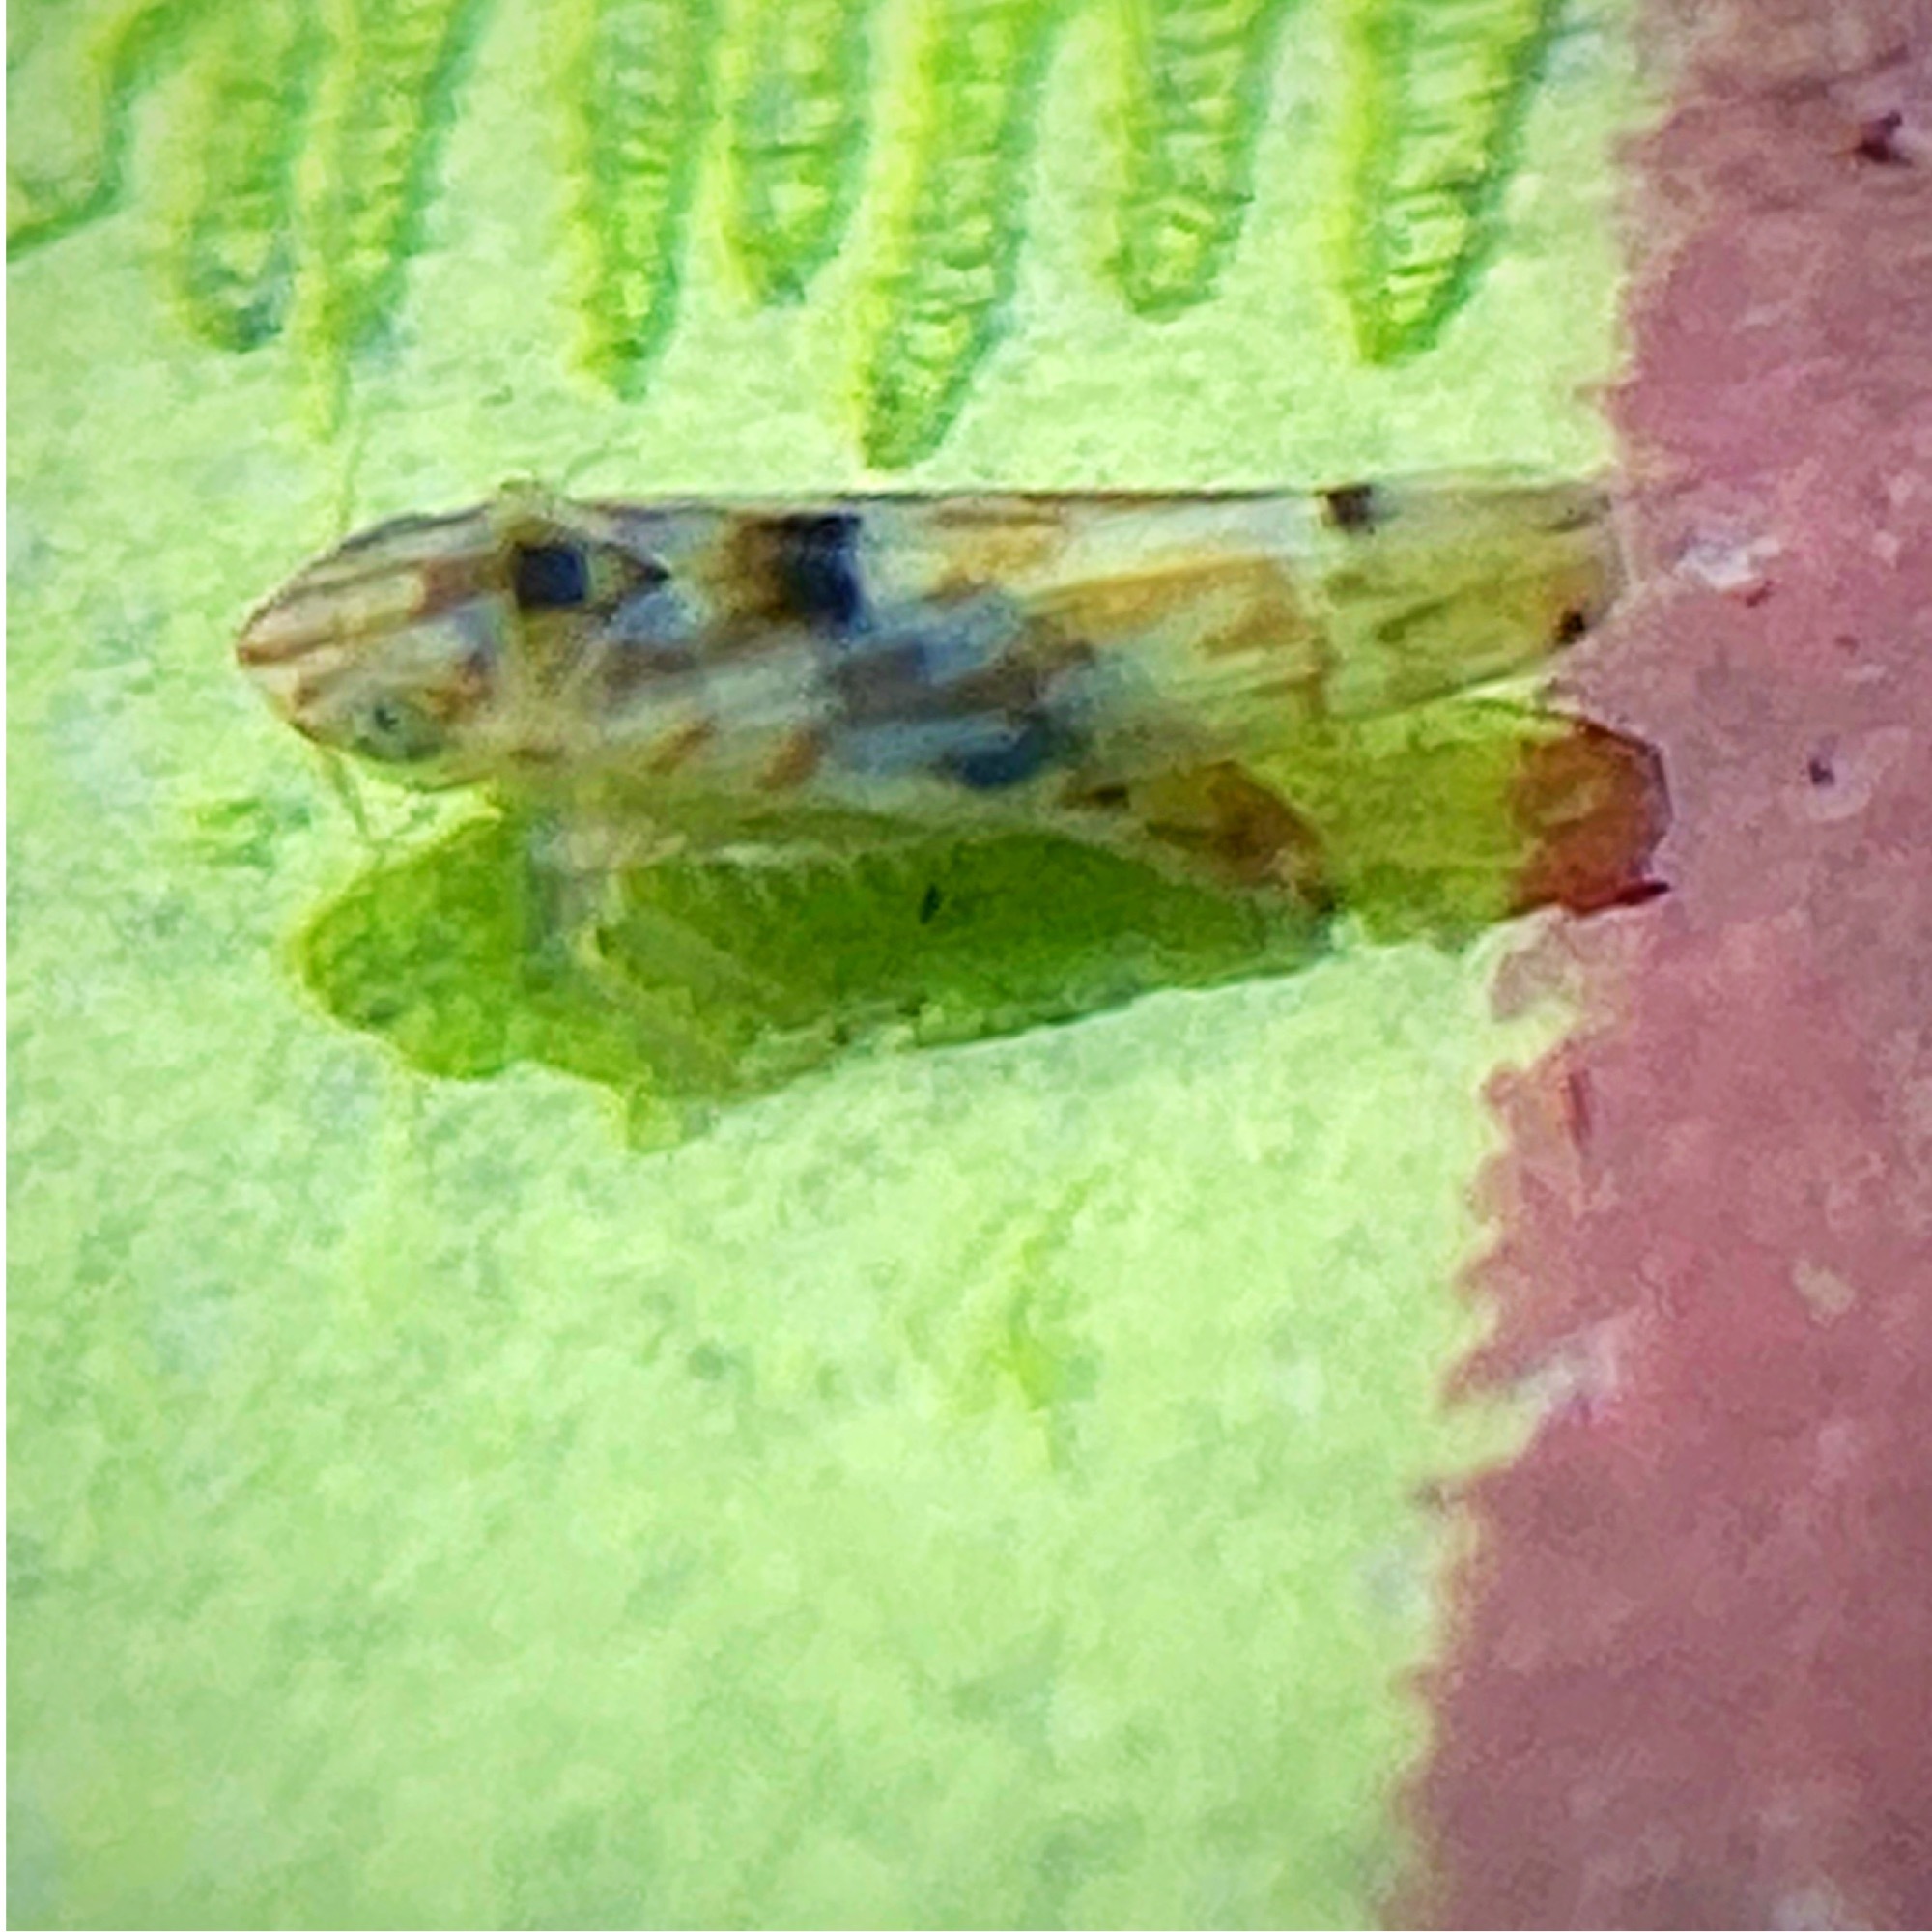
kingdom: Animalia
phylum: Arthropoda
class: Insecta
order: Hemiptera
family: Cicadellidae
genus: Erythroneura
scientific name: Erythroneura octonotata
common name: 8-spotted leafhopper
